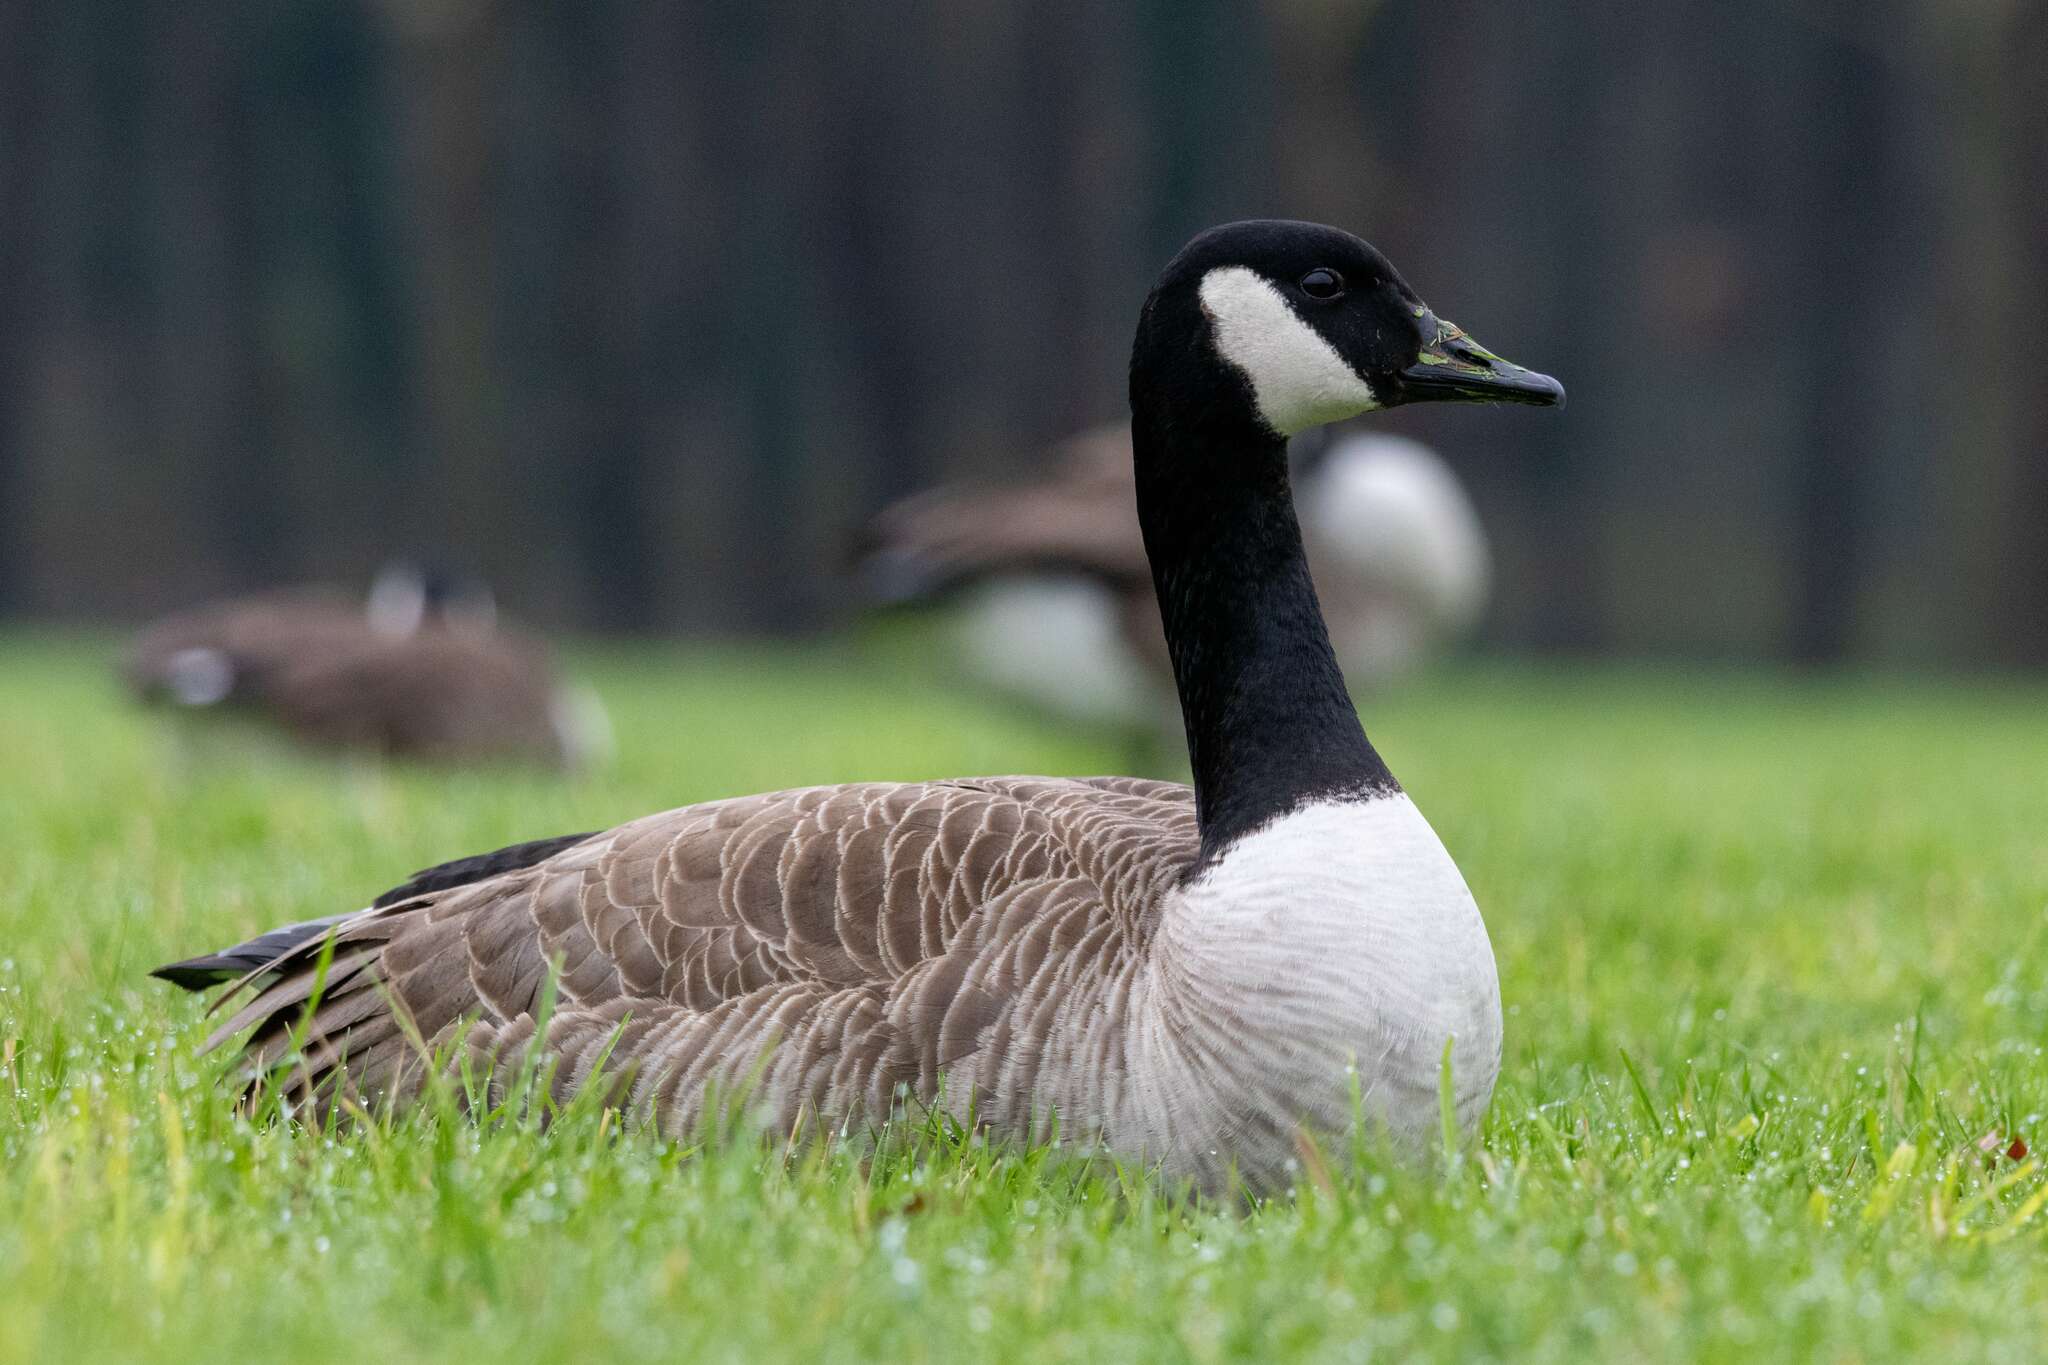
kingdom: Animalia
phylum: Chordata
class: Aves
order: Anseriformes
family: Anatidae
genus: Branta
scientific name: Branta canadensis
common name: Canada goose
